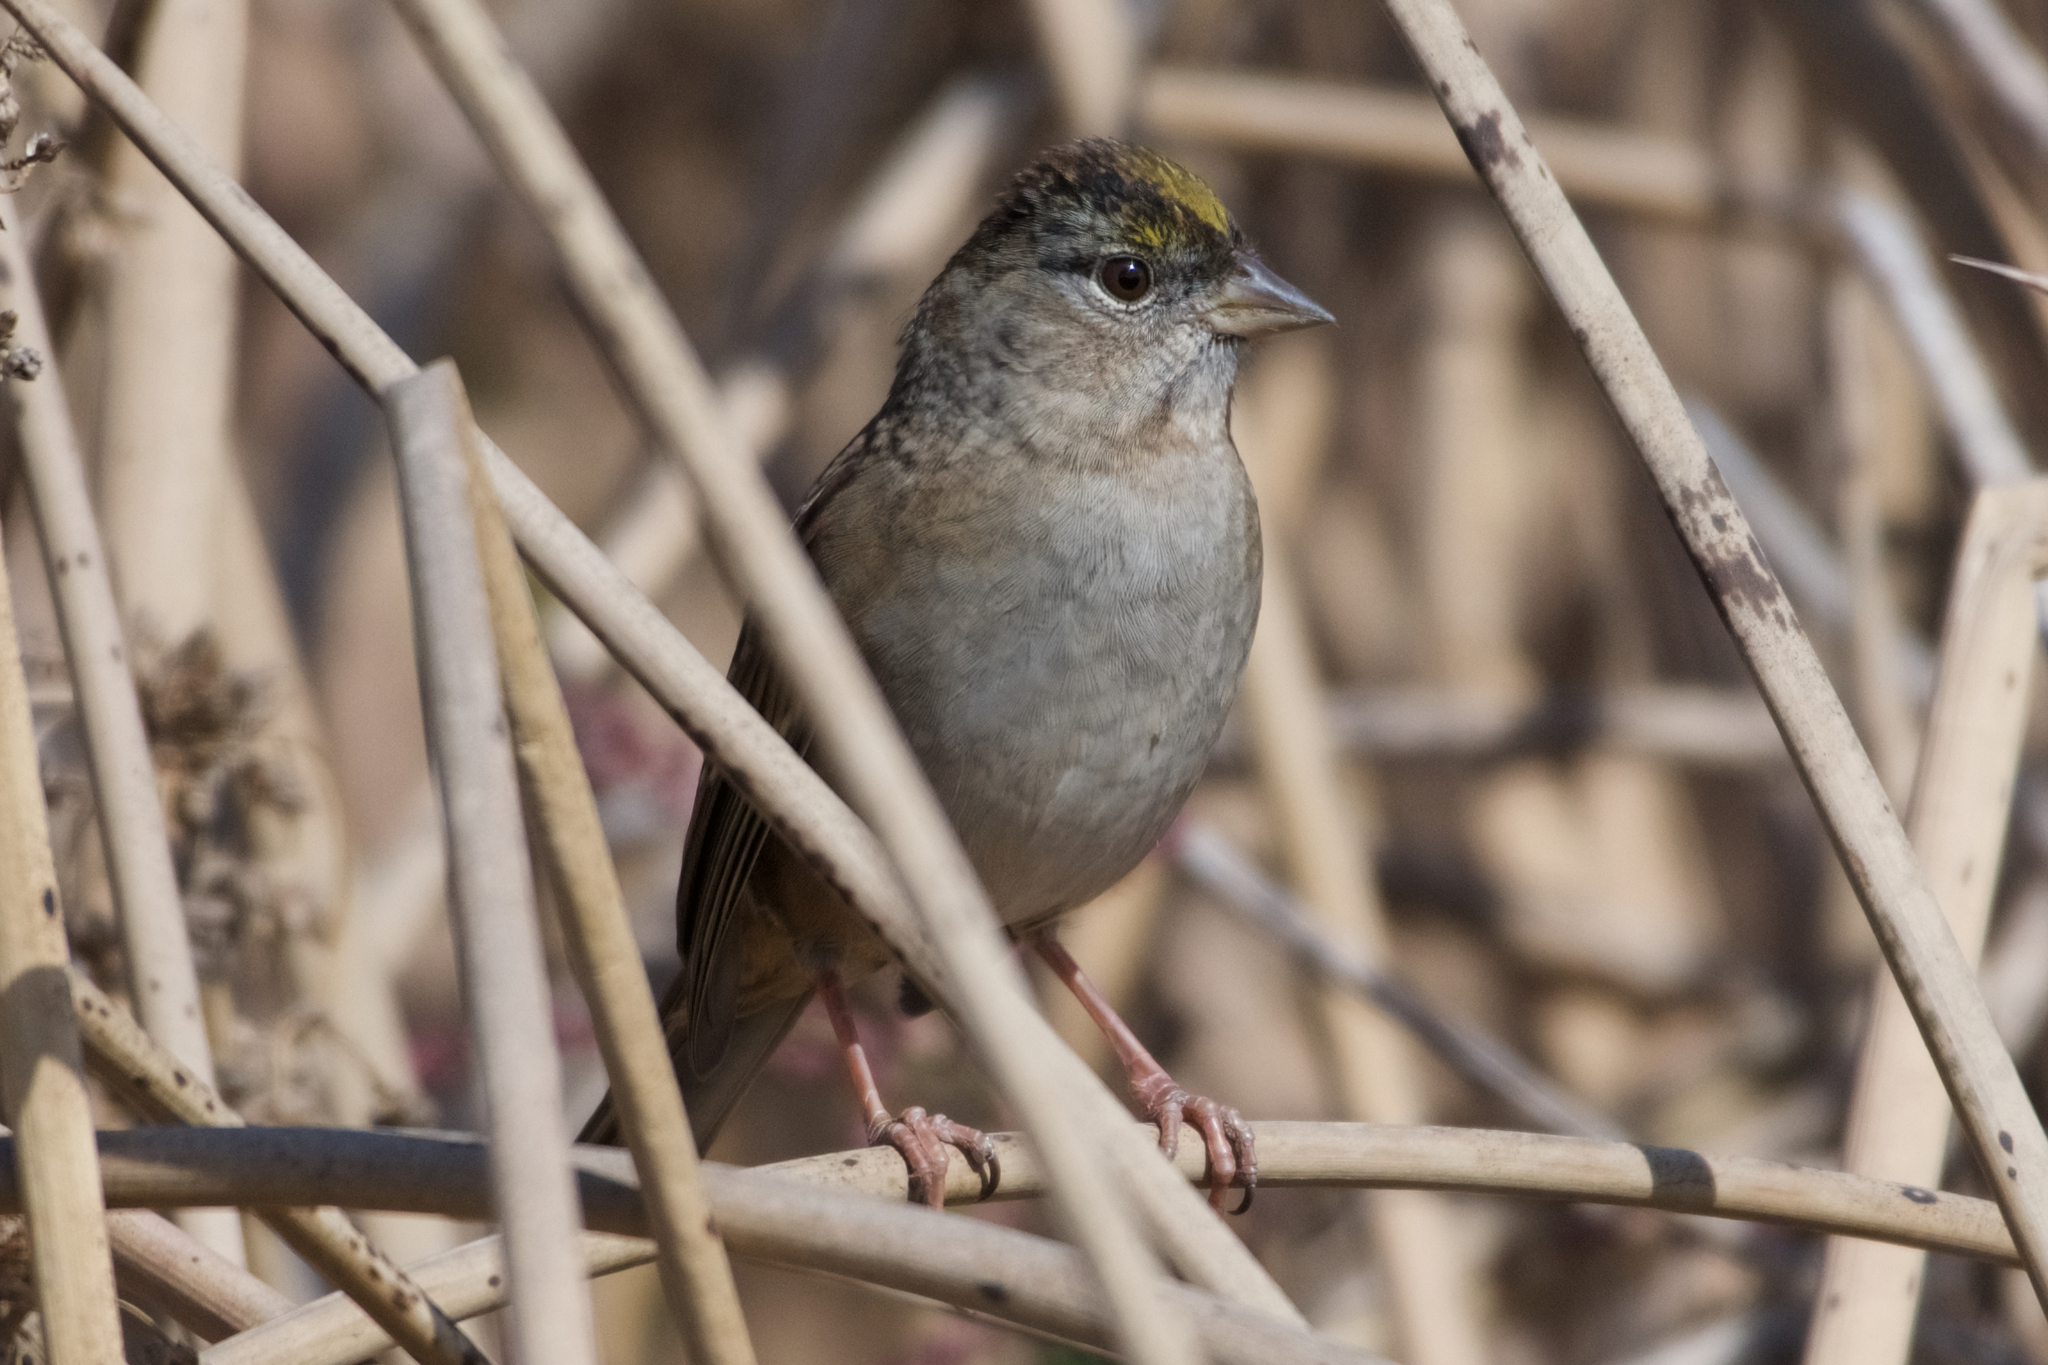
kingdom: Animalia
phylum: Chordata
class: Aves
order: Passeriformes
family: Passerellidae
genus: Zonotrichia
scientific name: Zonotrichia atricapilla
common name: Golden-crowned sparrow
